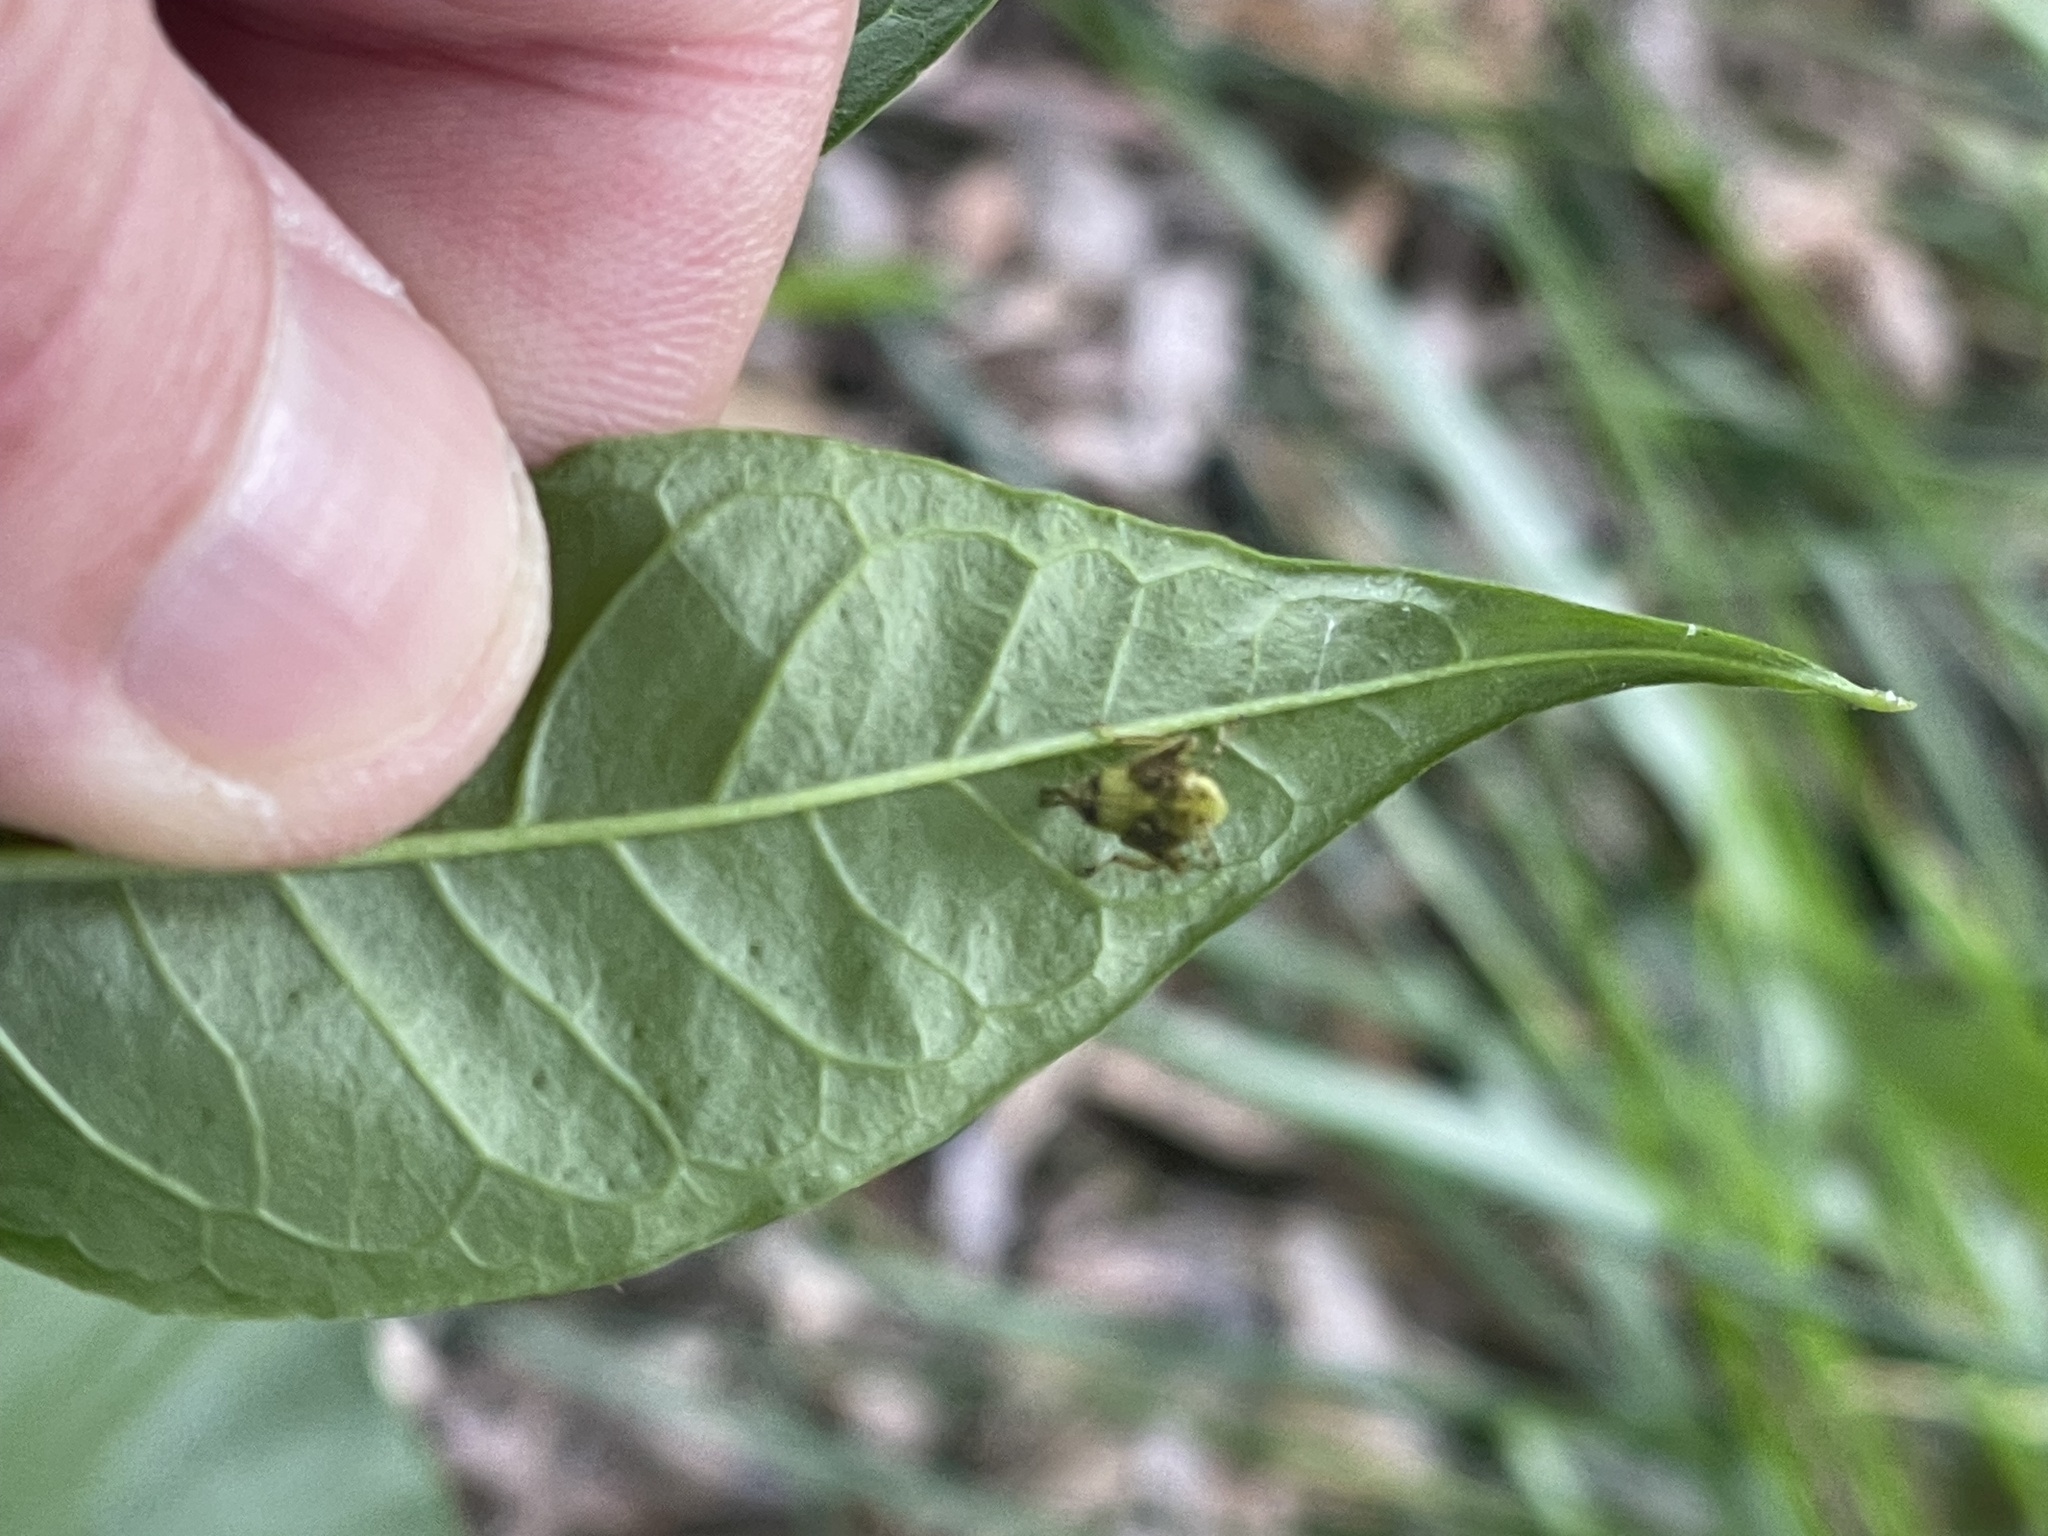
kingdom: Animalia
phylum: Arthropoda
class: Insecta
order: Hemiptera
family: Cicadellidae
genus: Jikradia
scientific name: Jikradia olitoria
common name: Coppery leafhopper
